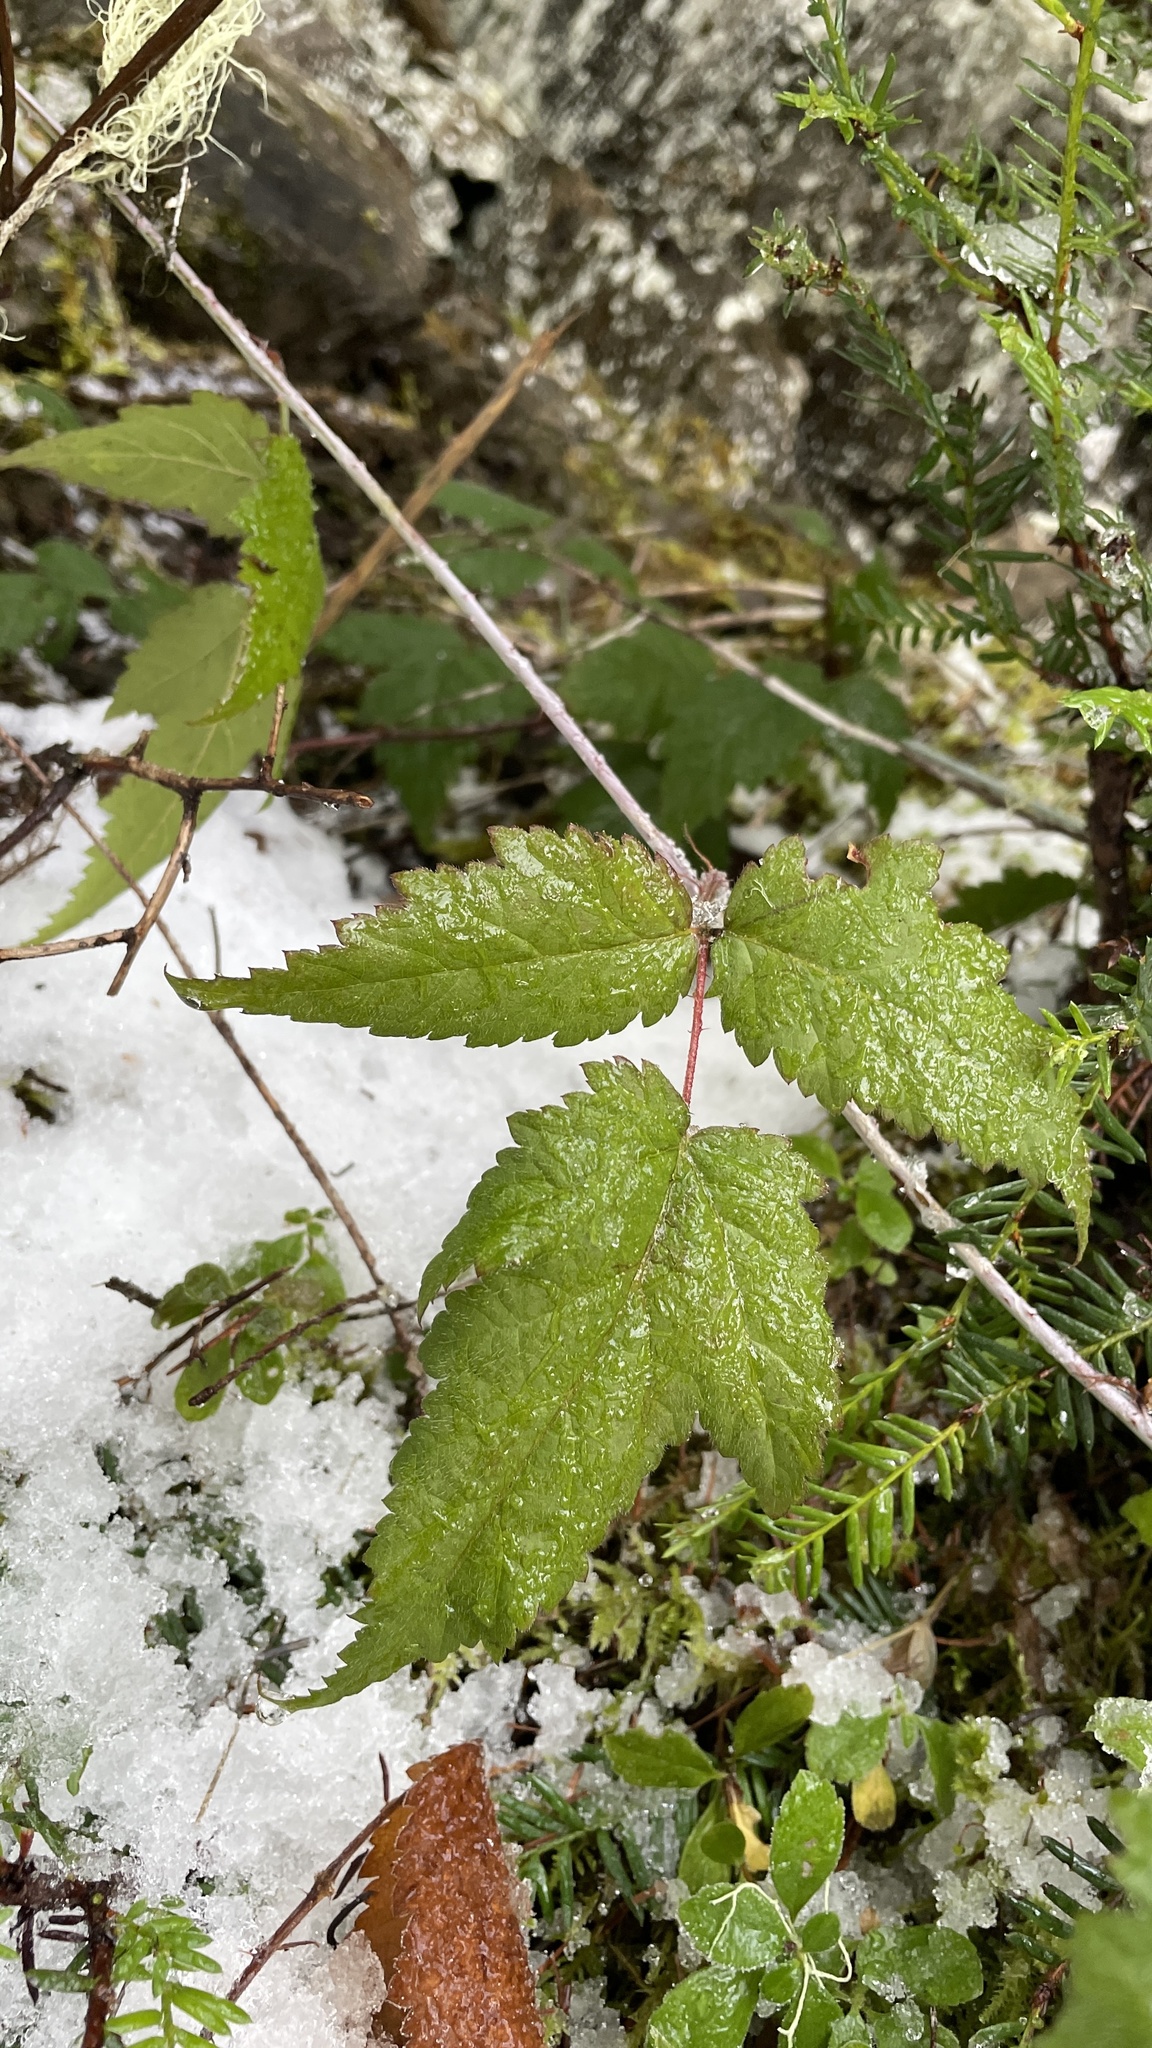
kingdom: Plantae
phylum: Tracheophyta
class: Magnoliopsida
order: Rosales
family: Rosaceae
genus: Rubus
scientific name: Rubus ursinus
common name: Pacific blackberry
